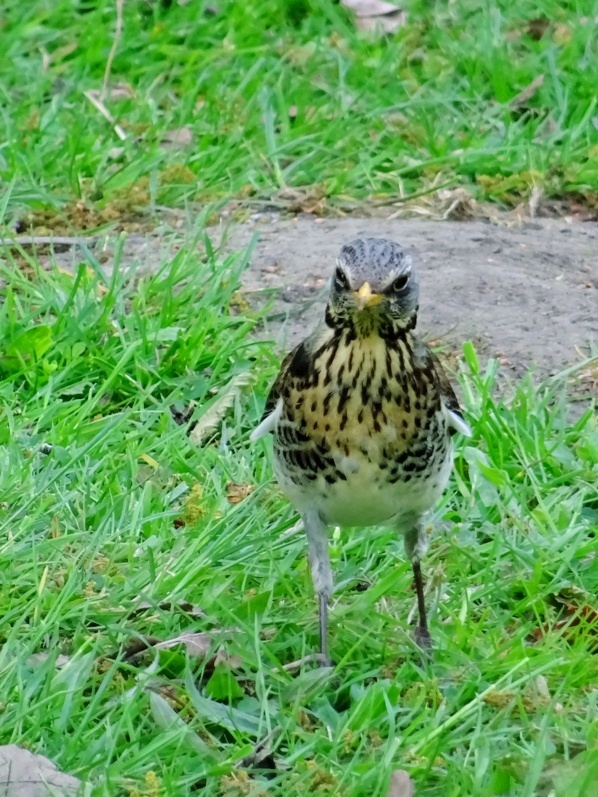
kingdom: Animalia
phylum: Chordata
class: Aves
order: Passeriformes
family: Turdidae
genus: Turdus
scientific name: Turdus pilaris
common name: Fieldfare
